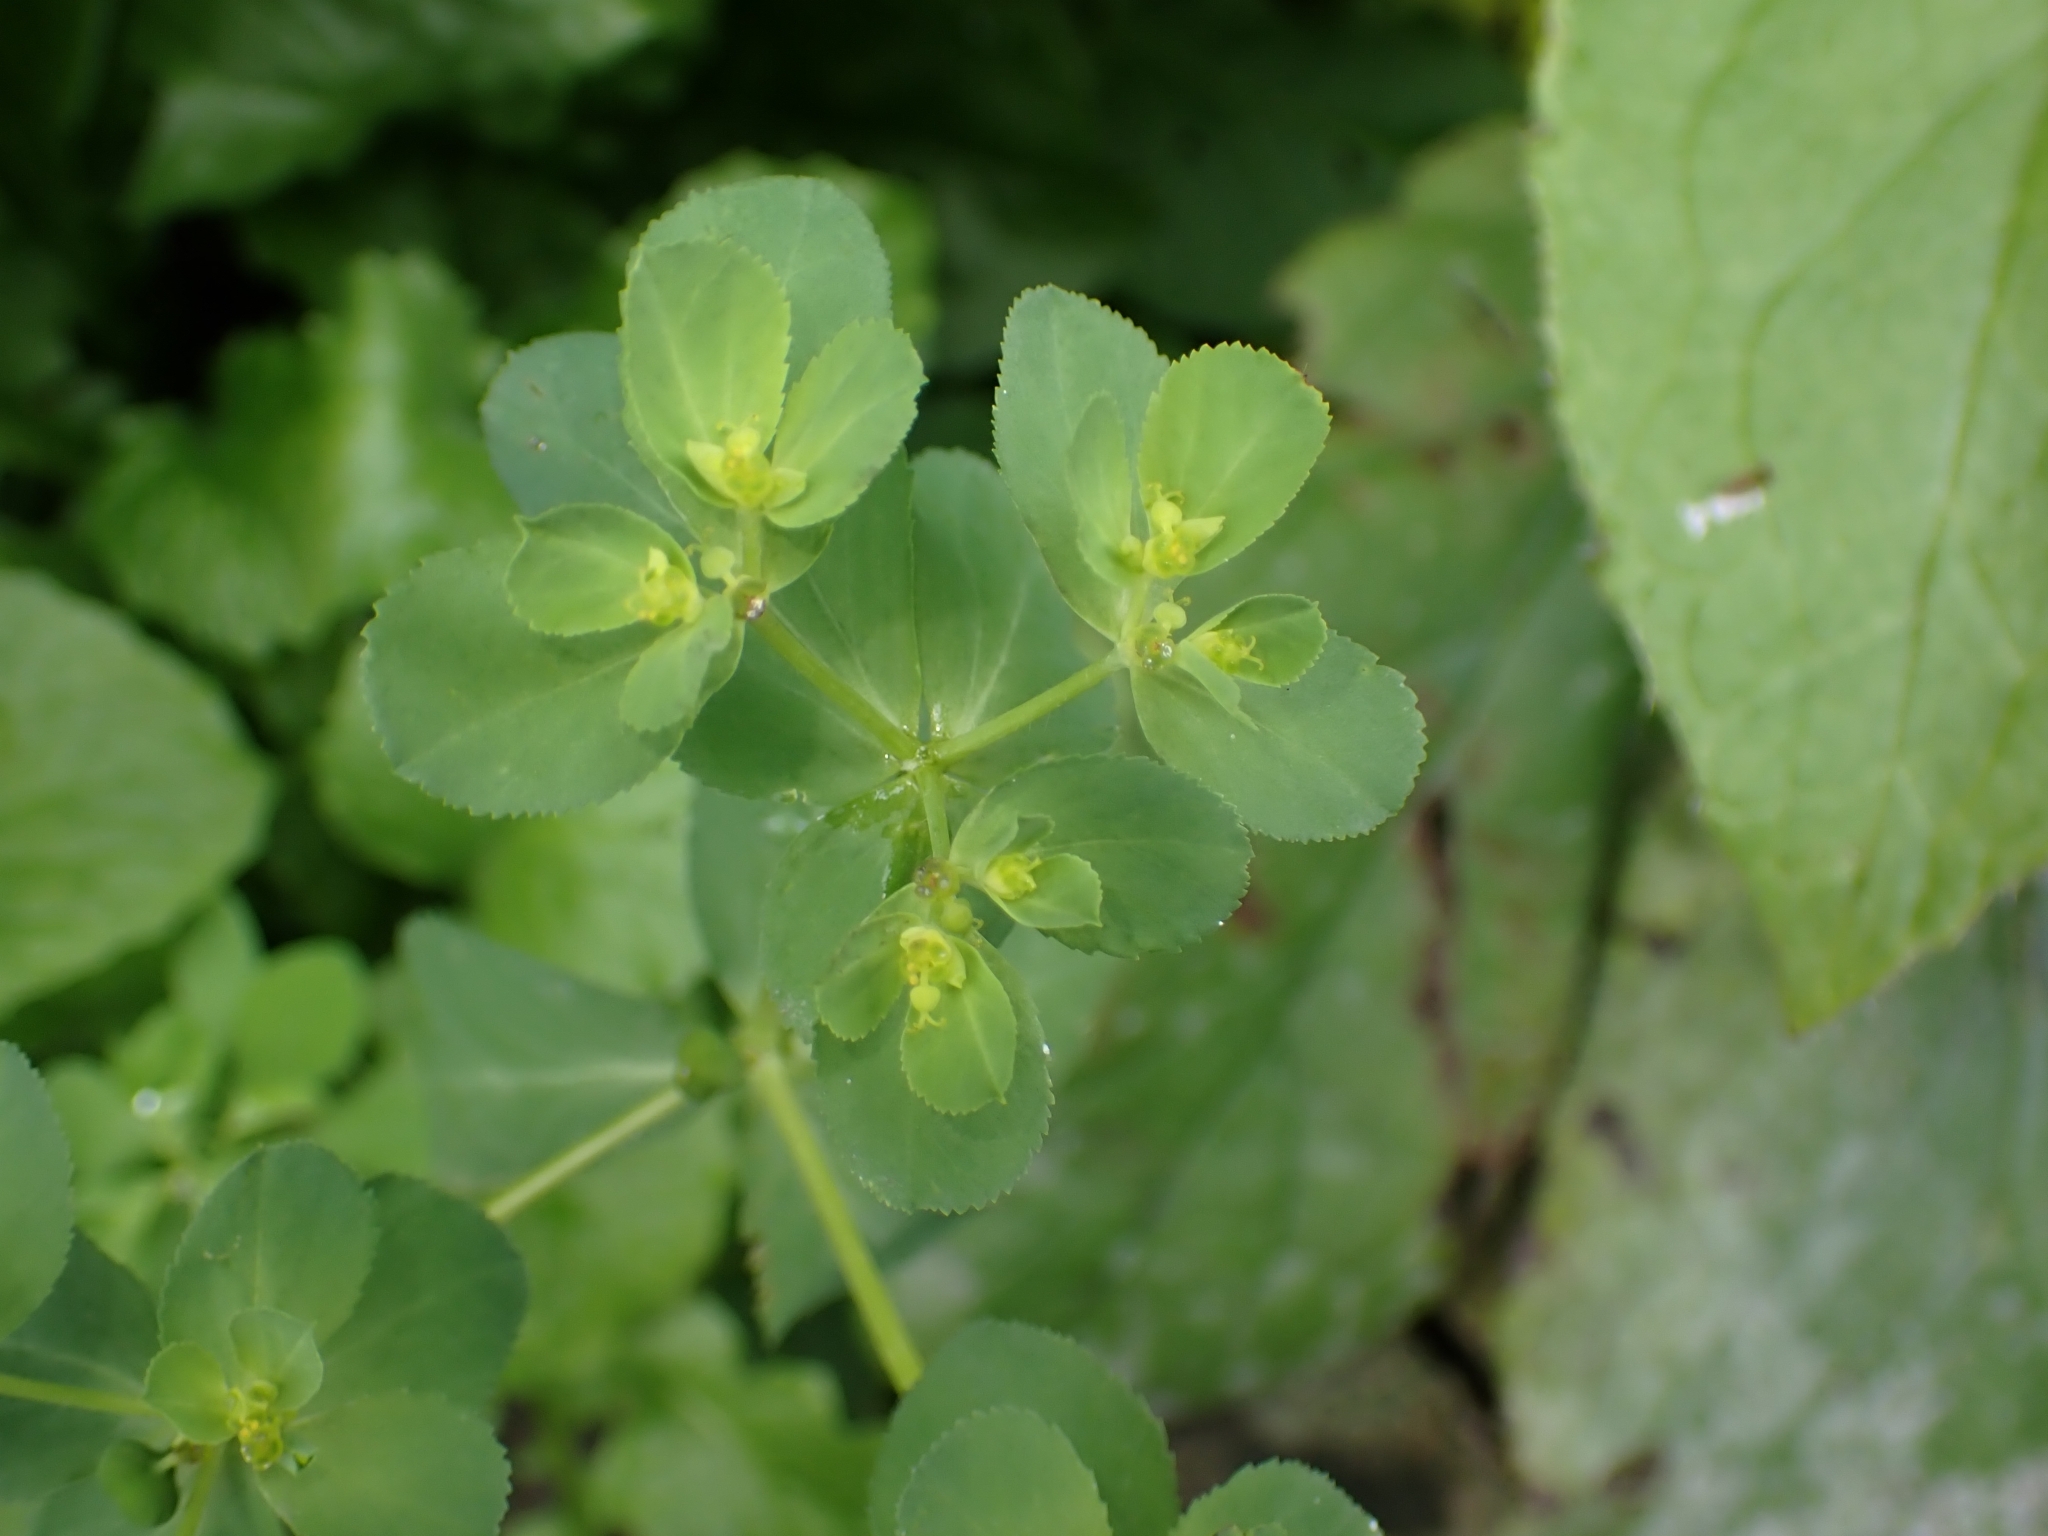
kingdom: Plantae
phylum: Tracheophyta
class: Magnoliopsida
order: Malpighiales
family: Euphorbiaceae
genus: Euphorbia
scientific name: Euphorbia helioscopia
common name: Sun spurge
